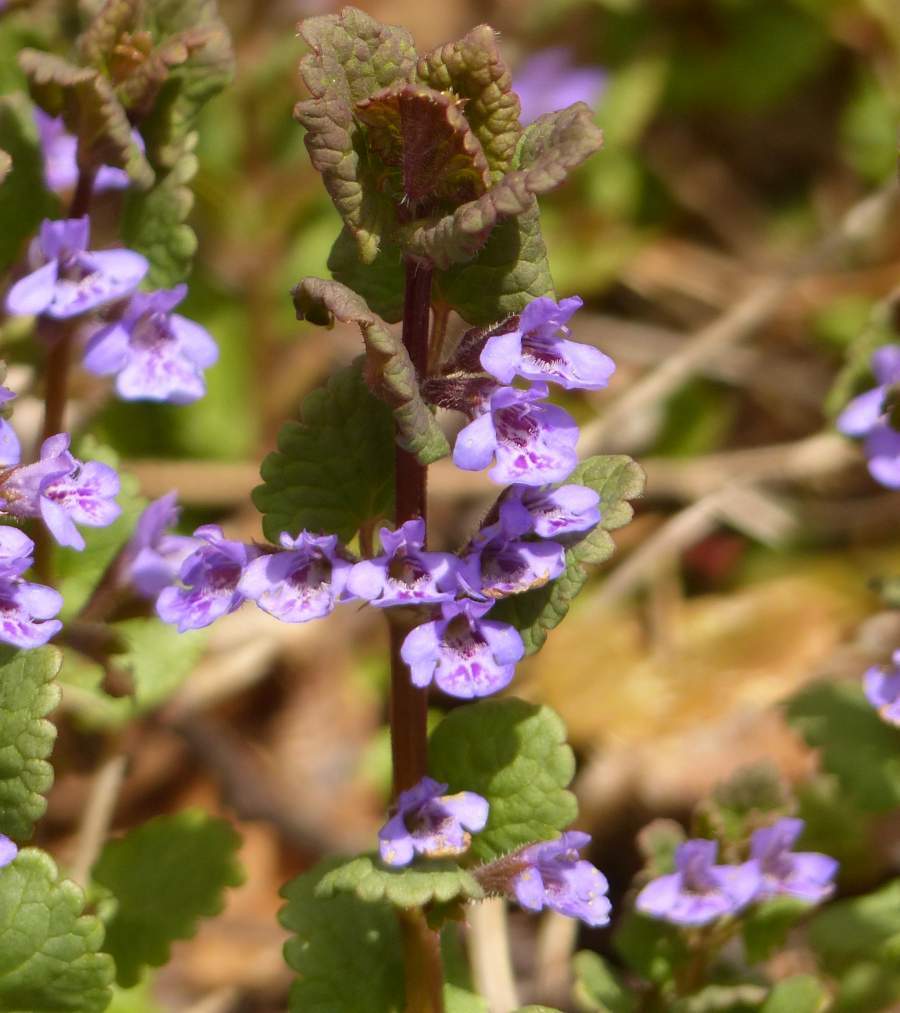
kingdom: Plantae
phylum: Tracheophyta
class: Magnoliopsida
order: Lamiales
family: Lamiaceae
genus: Glechoma
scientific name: Glechoma hederacea
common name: Ground ivy
